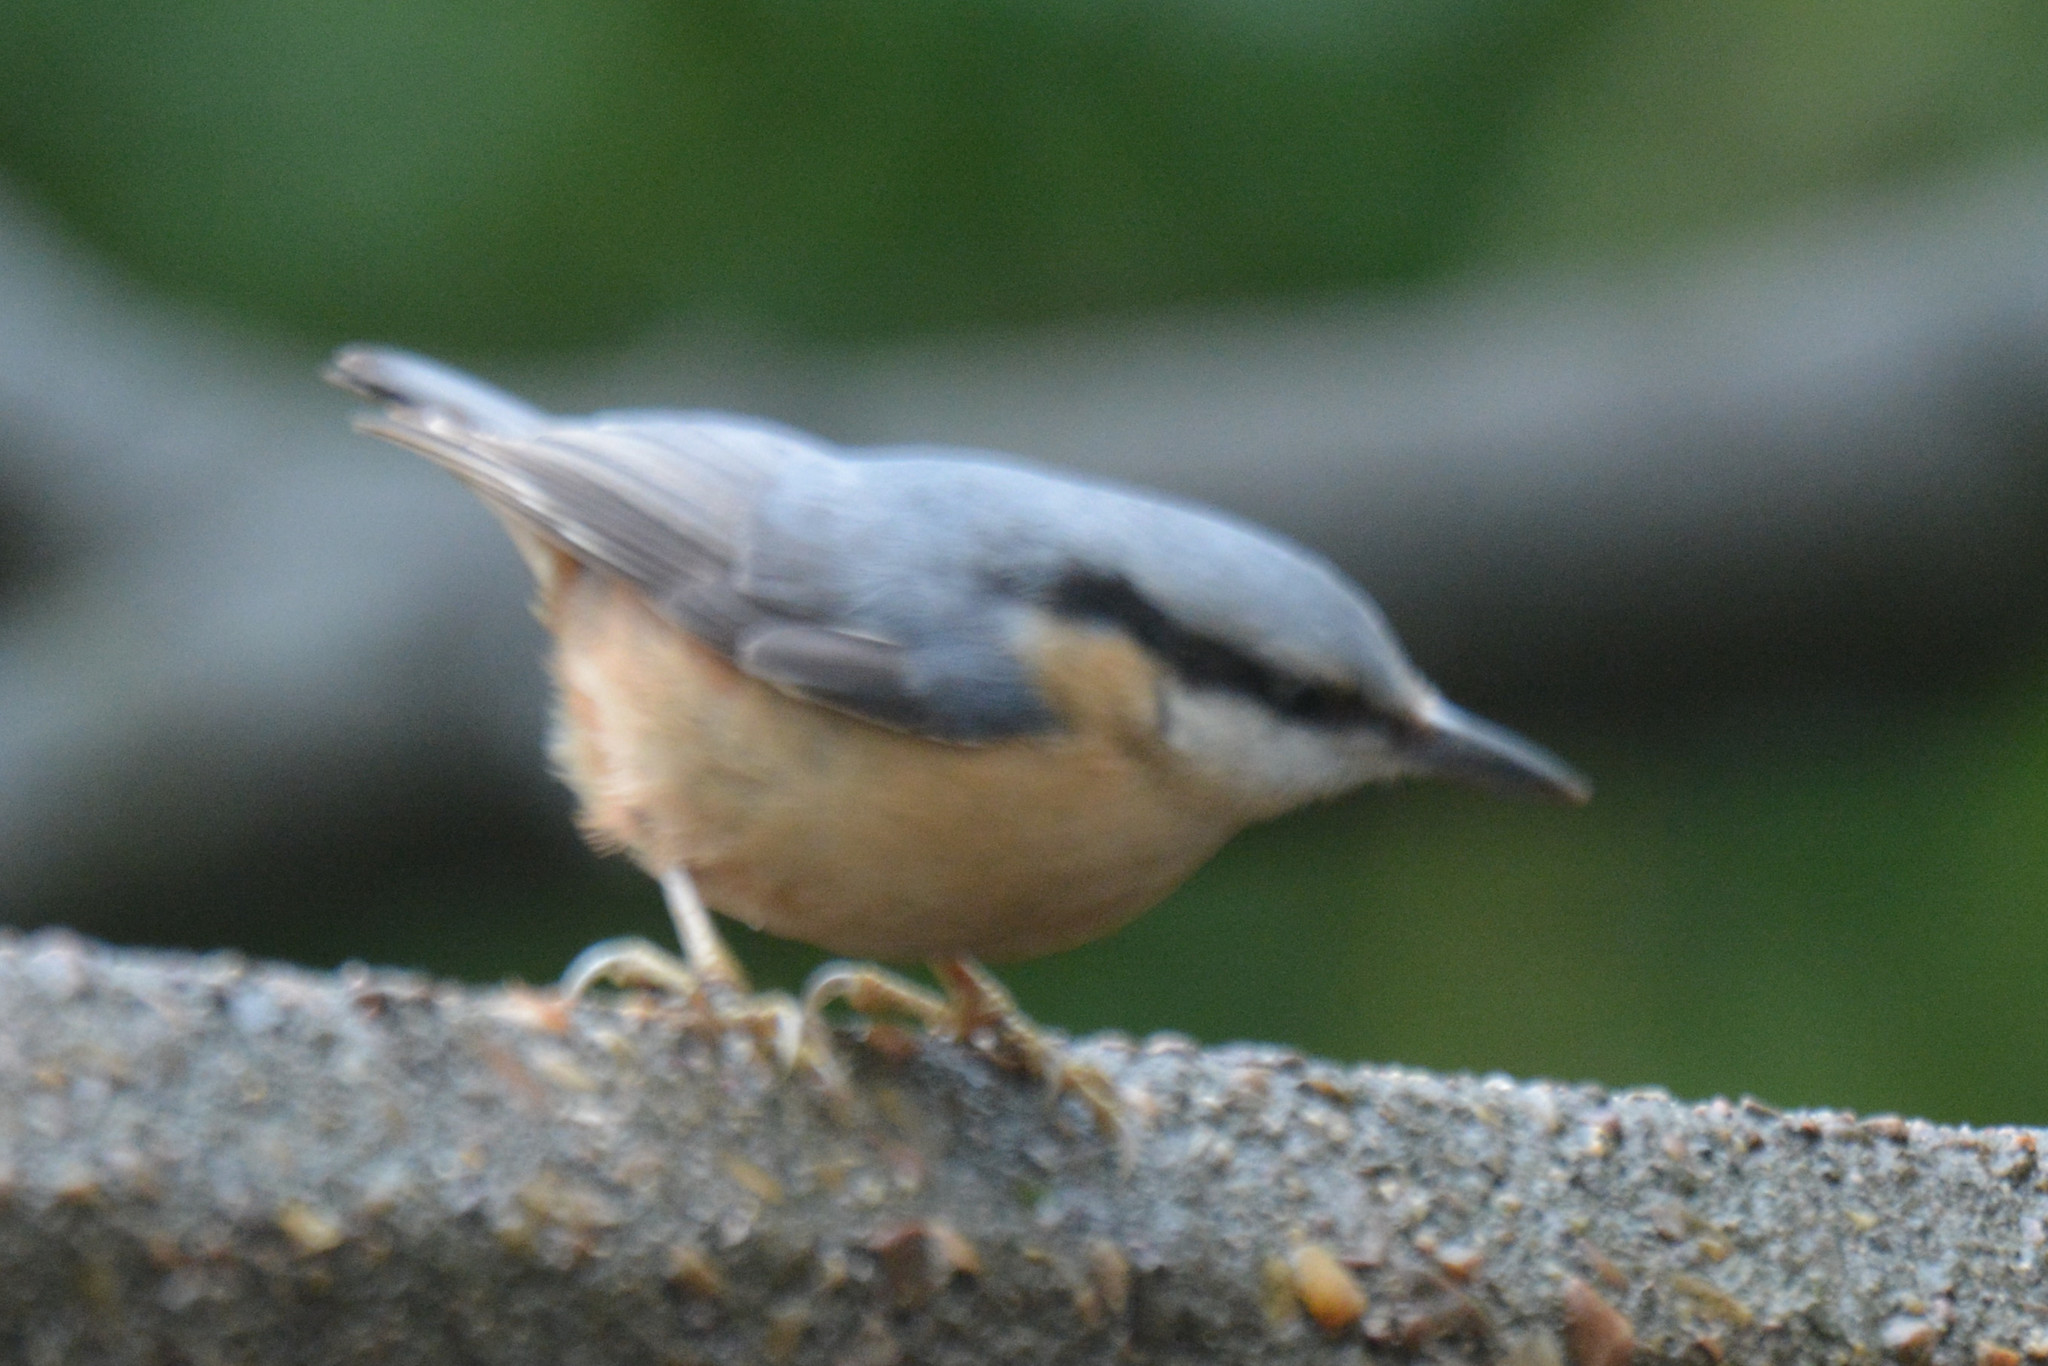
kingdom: Animalia
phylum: Chordata
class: Aves
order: Passeriformes
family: Sittidae
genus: Sitta
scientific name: Sitta europaea
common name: Eurasian nuthatch
